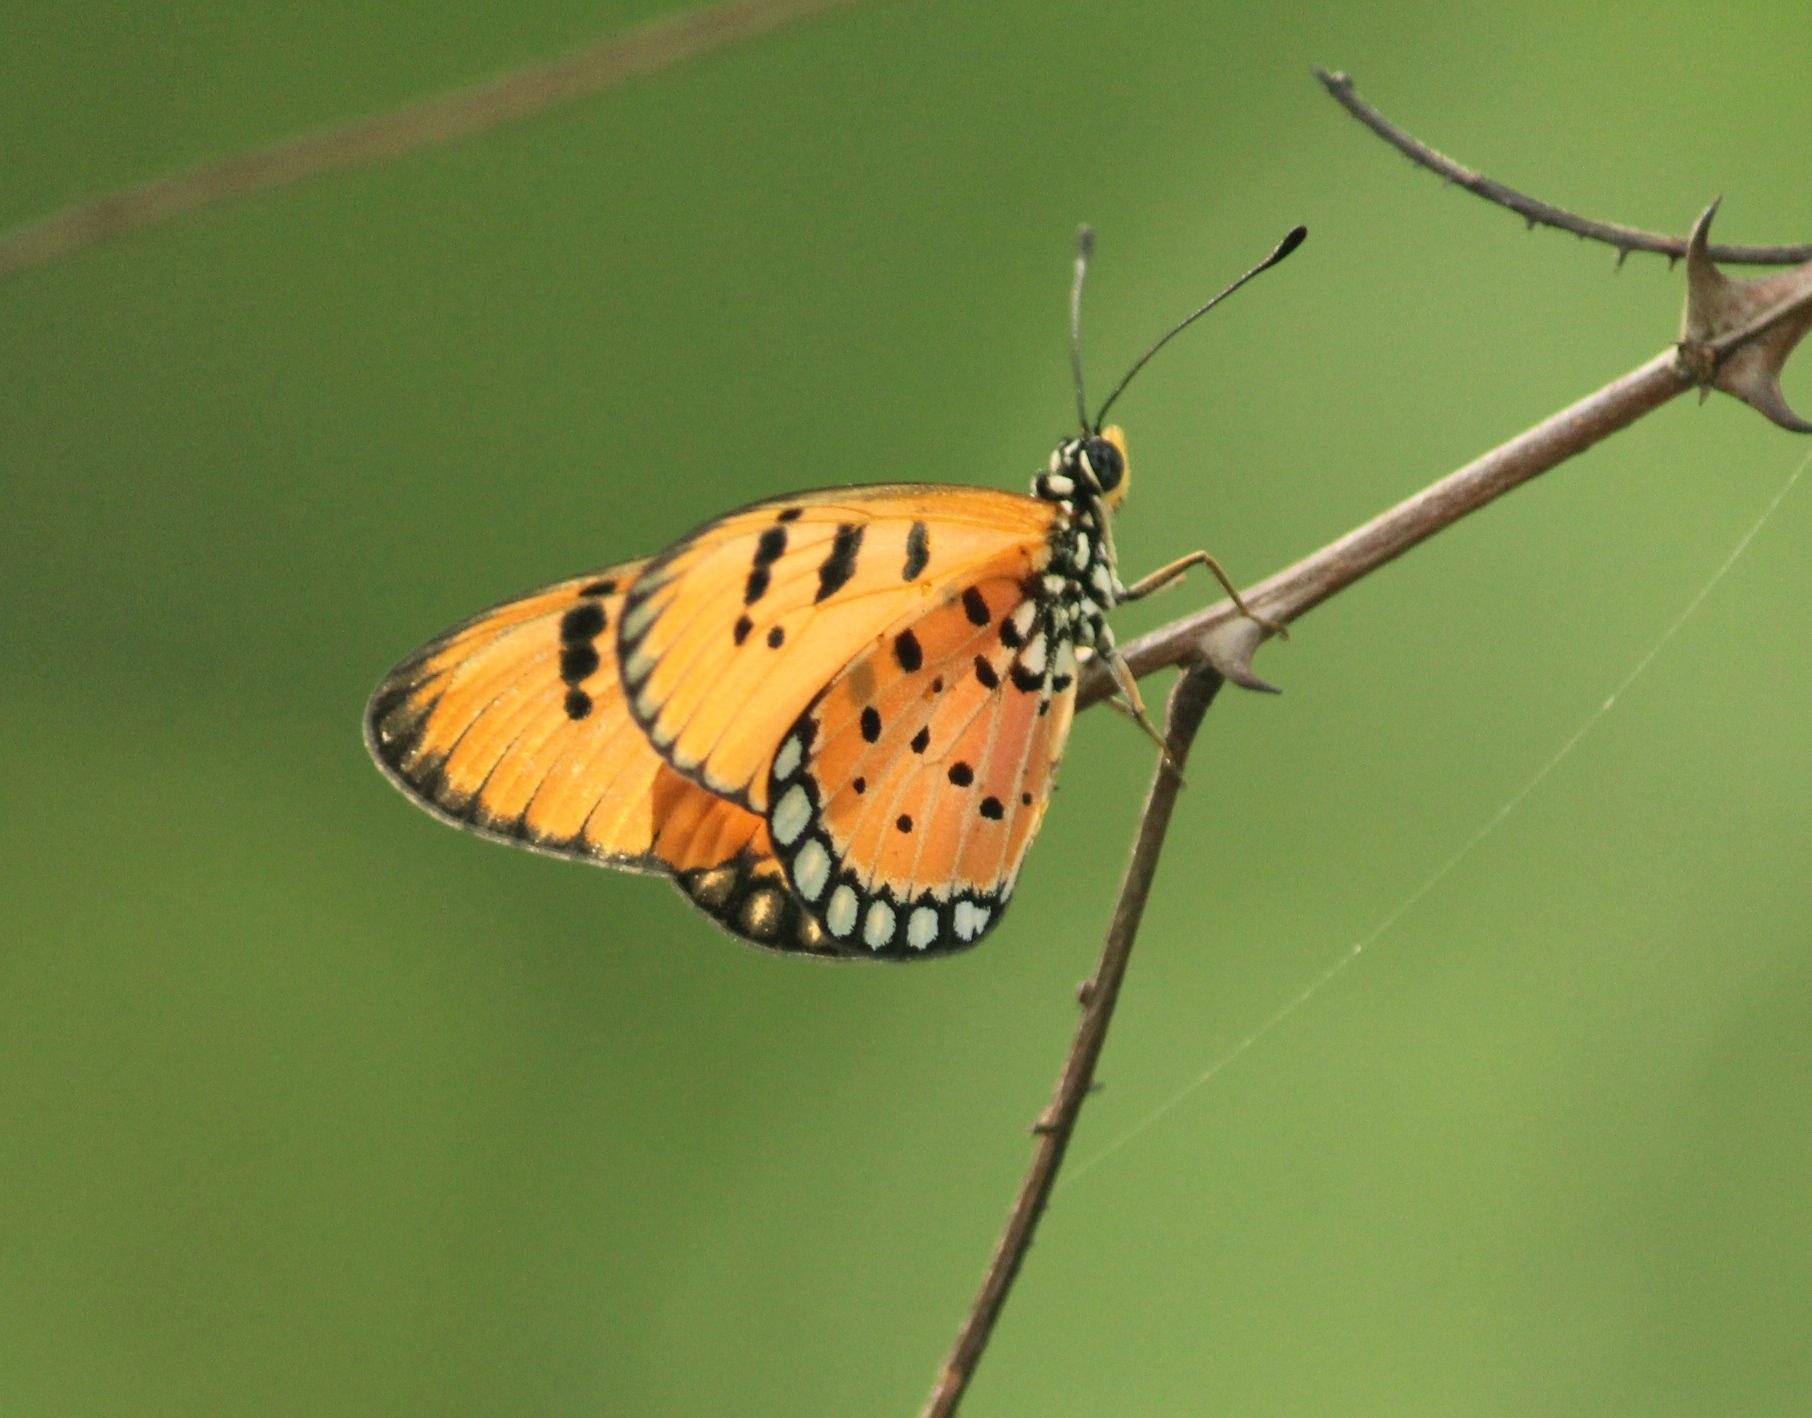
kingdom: Animalia
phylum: Arthropoda
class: Insecta
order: Lepidoptera
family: Nymphalidae
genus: Acraea
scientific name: Acraea terpsicore
